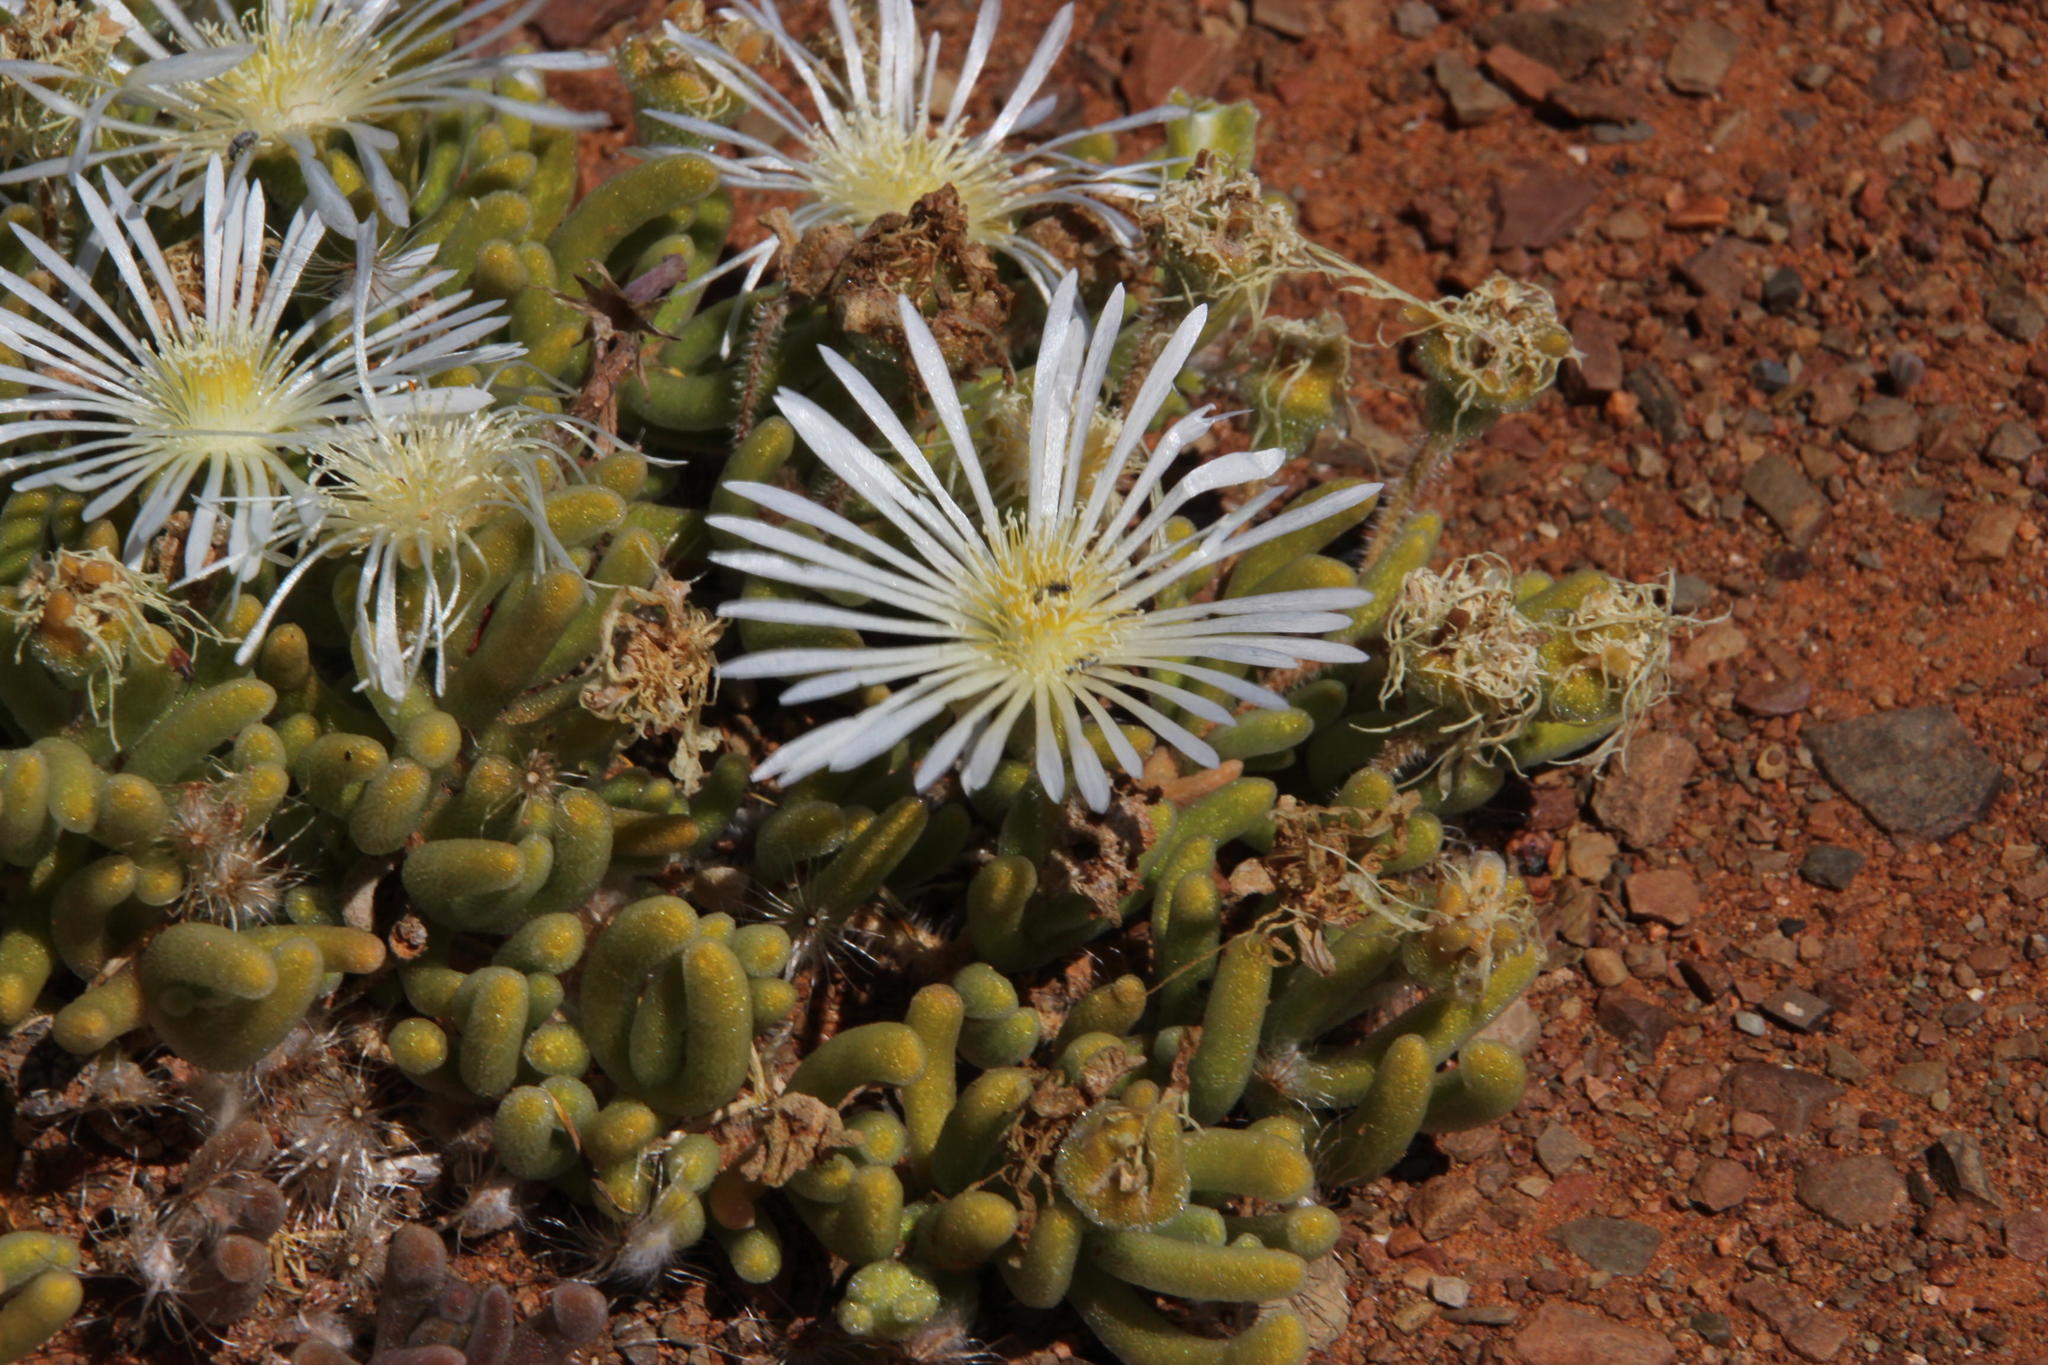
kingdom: Plantae
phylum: Tracheophyta
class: Magnoliopsida
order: Caryophyllales
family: Aizoaceae
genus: Drosanthemum
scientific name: Drosanthemum eburneum
